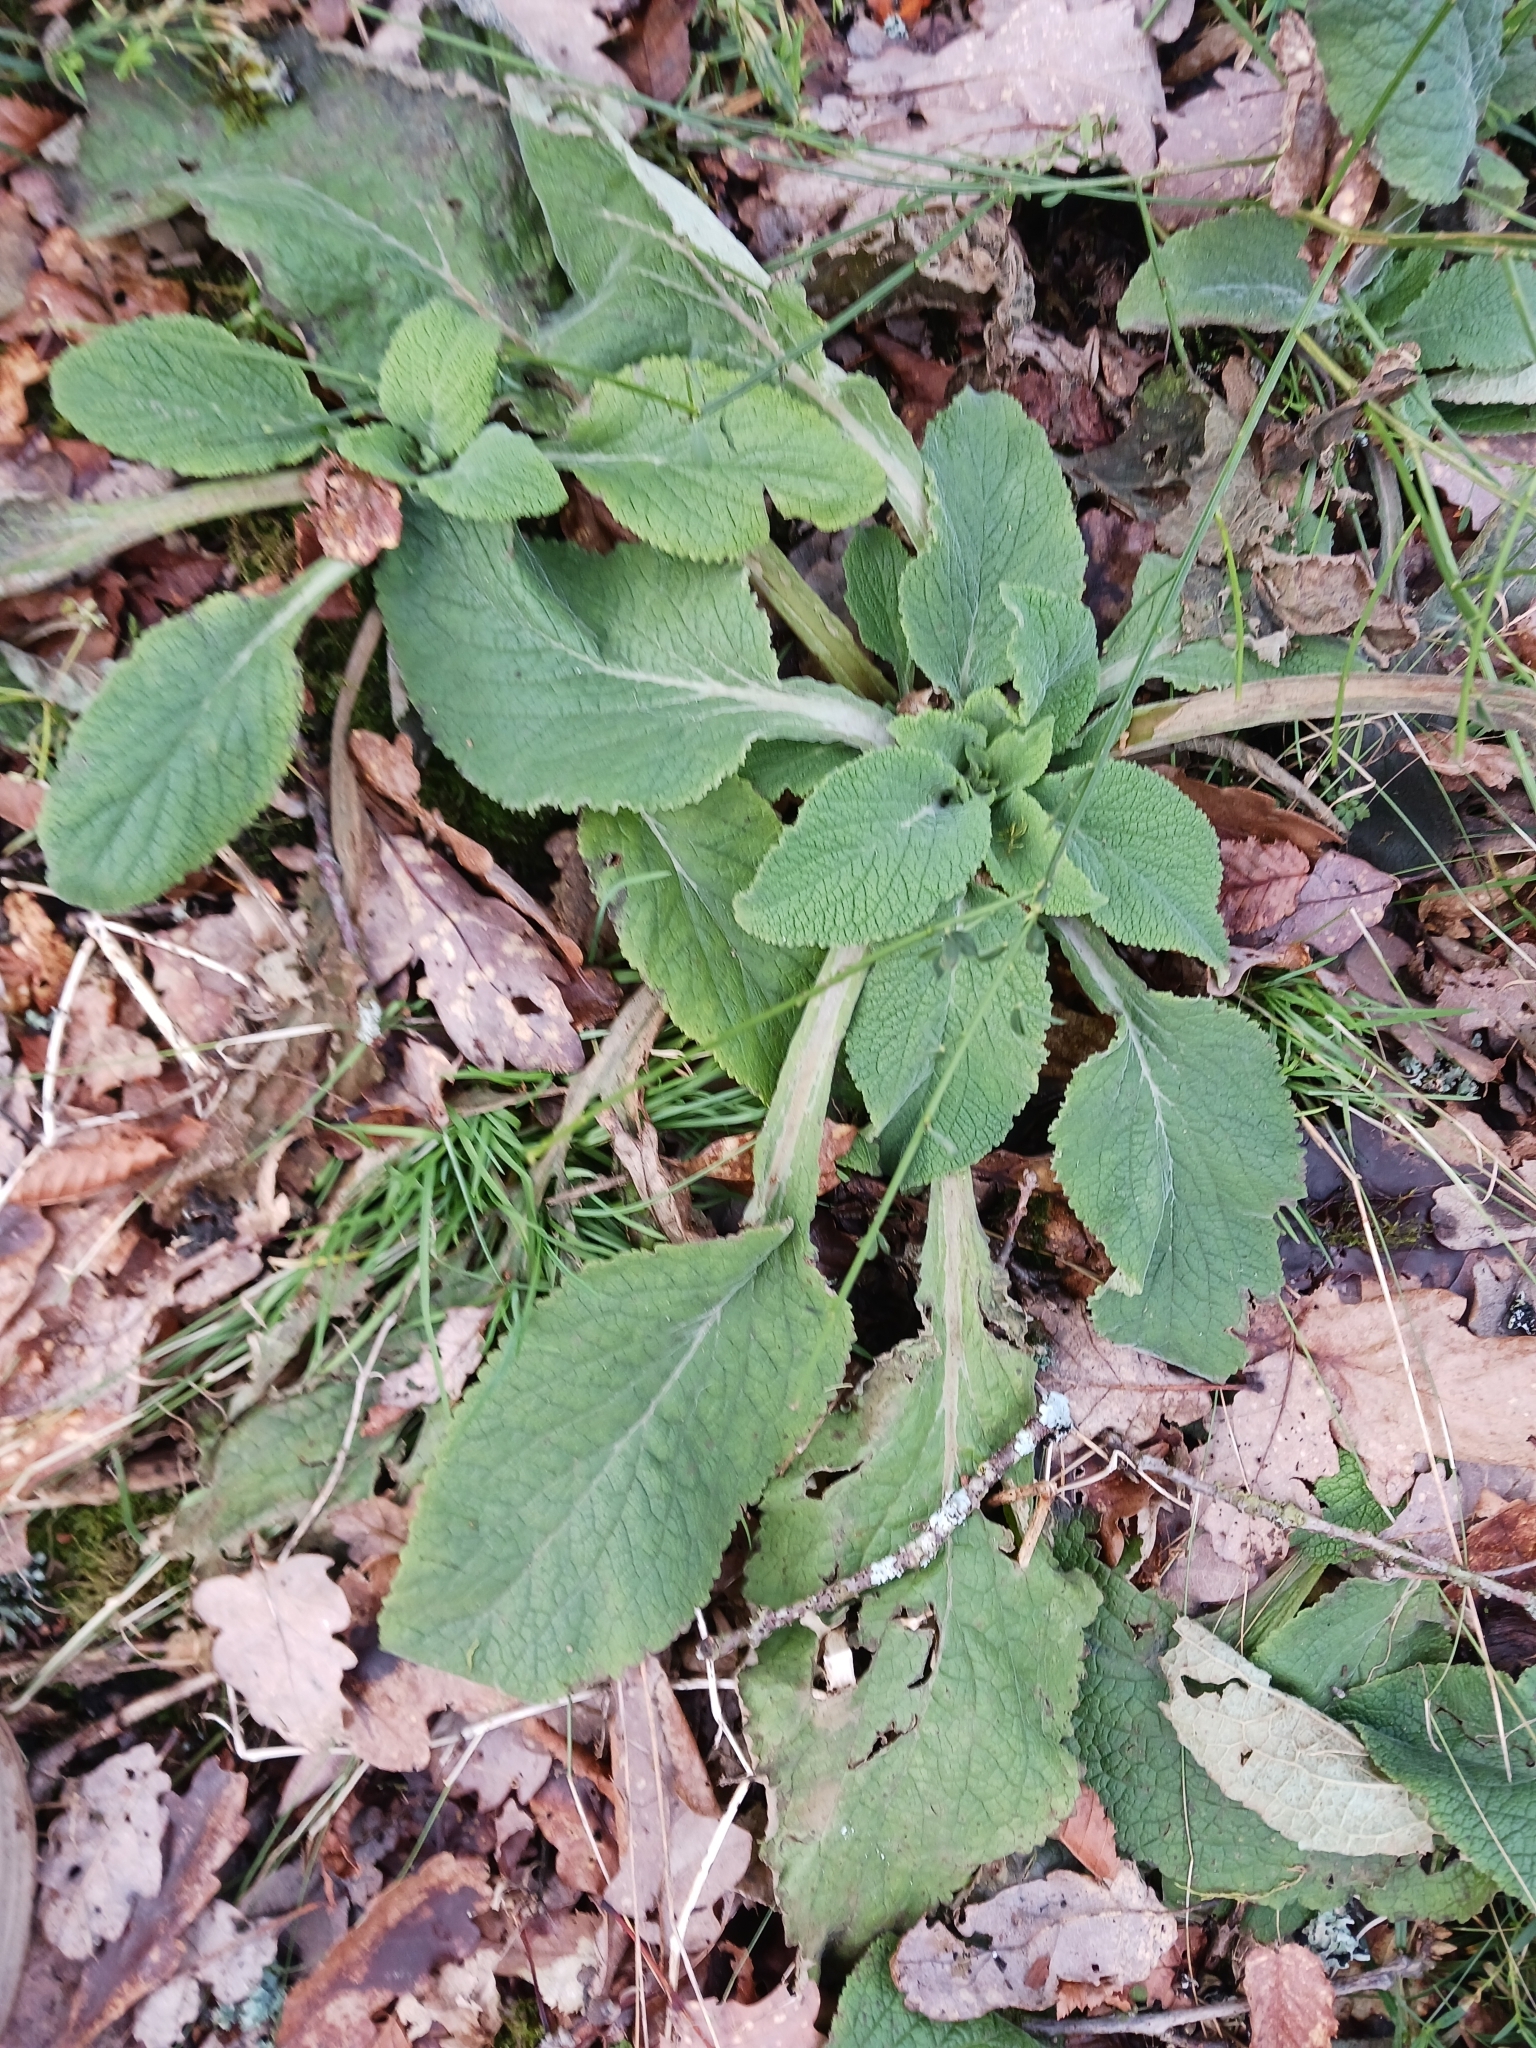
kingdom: Plantae
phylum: Tracheophyta
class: Magnoliopsida
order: Lamiales
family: Plantaginaceae
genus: Digitalis
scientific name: Digitalis purpurea
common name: Foxglove
